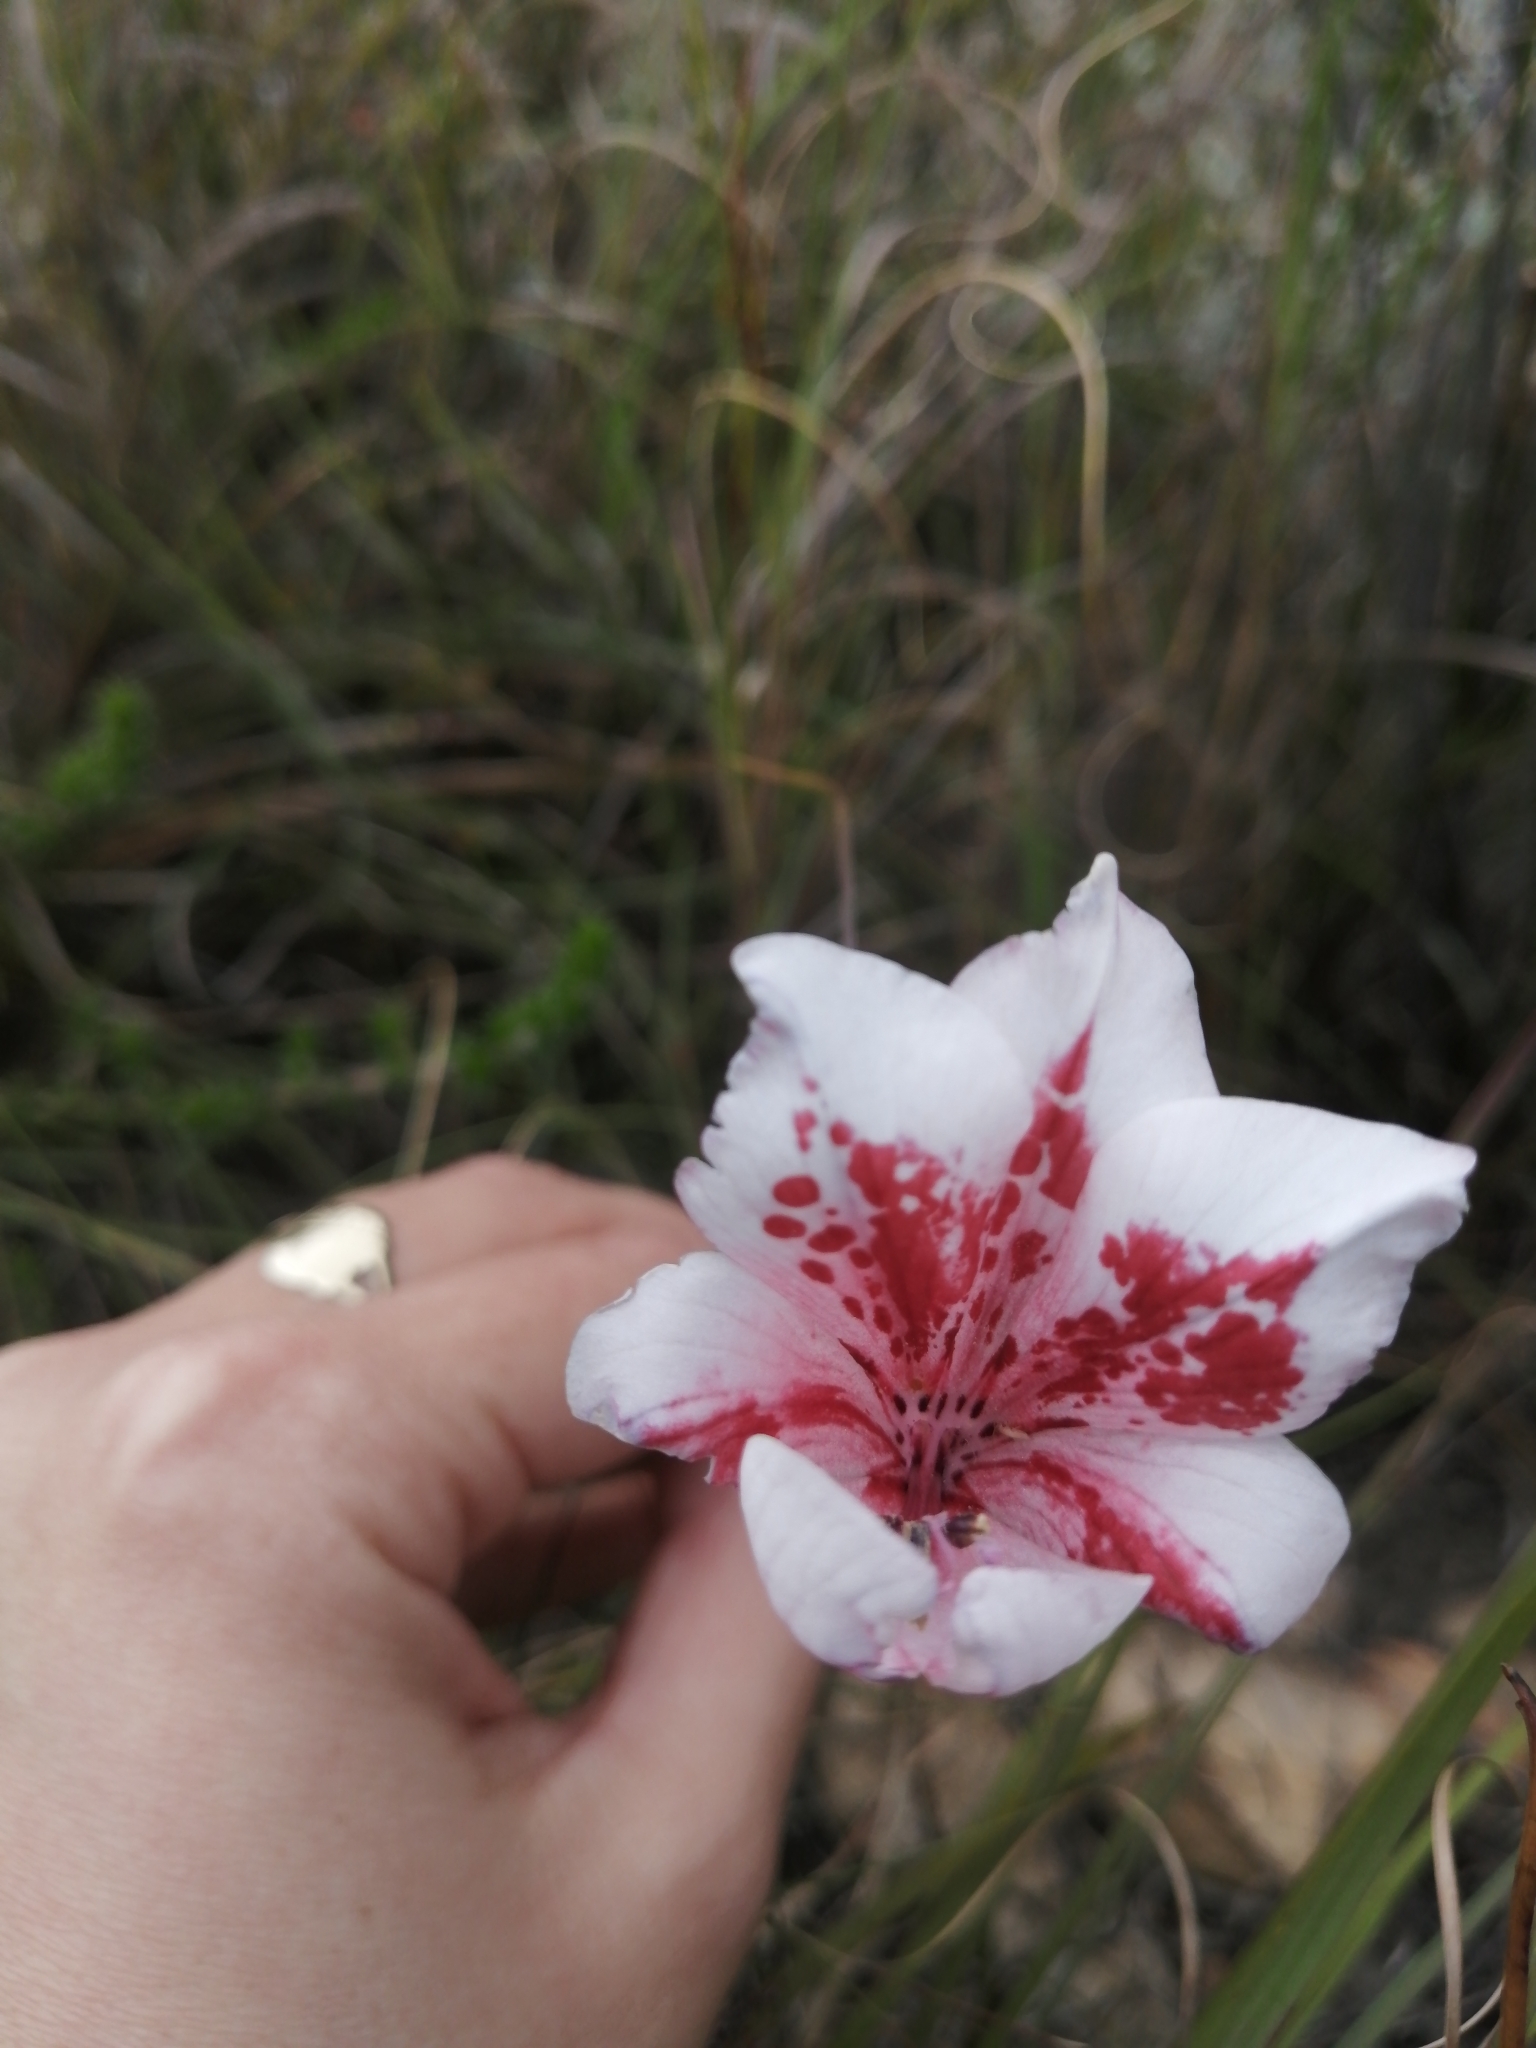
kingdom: Plantae
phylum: Tracheophyta
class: Liliopsida
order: Asparagales
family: Iridaceae
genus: Gladiolus
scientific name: Gladiolus variegatus
